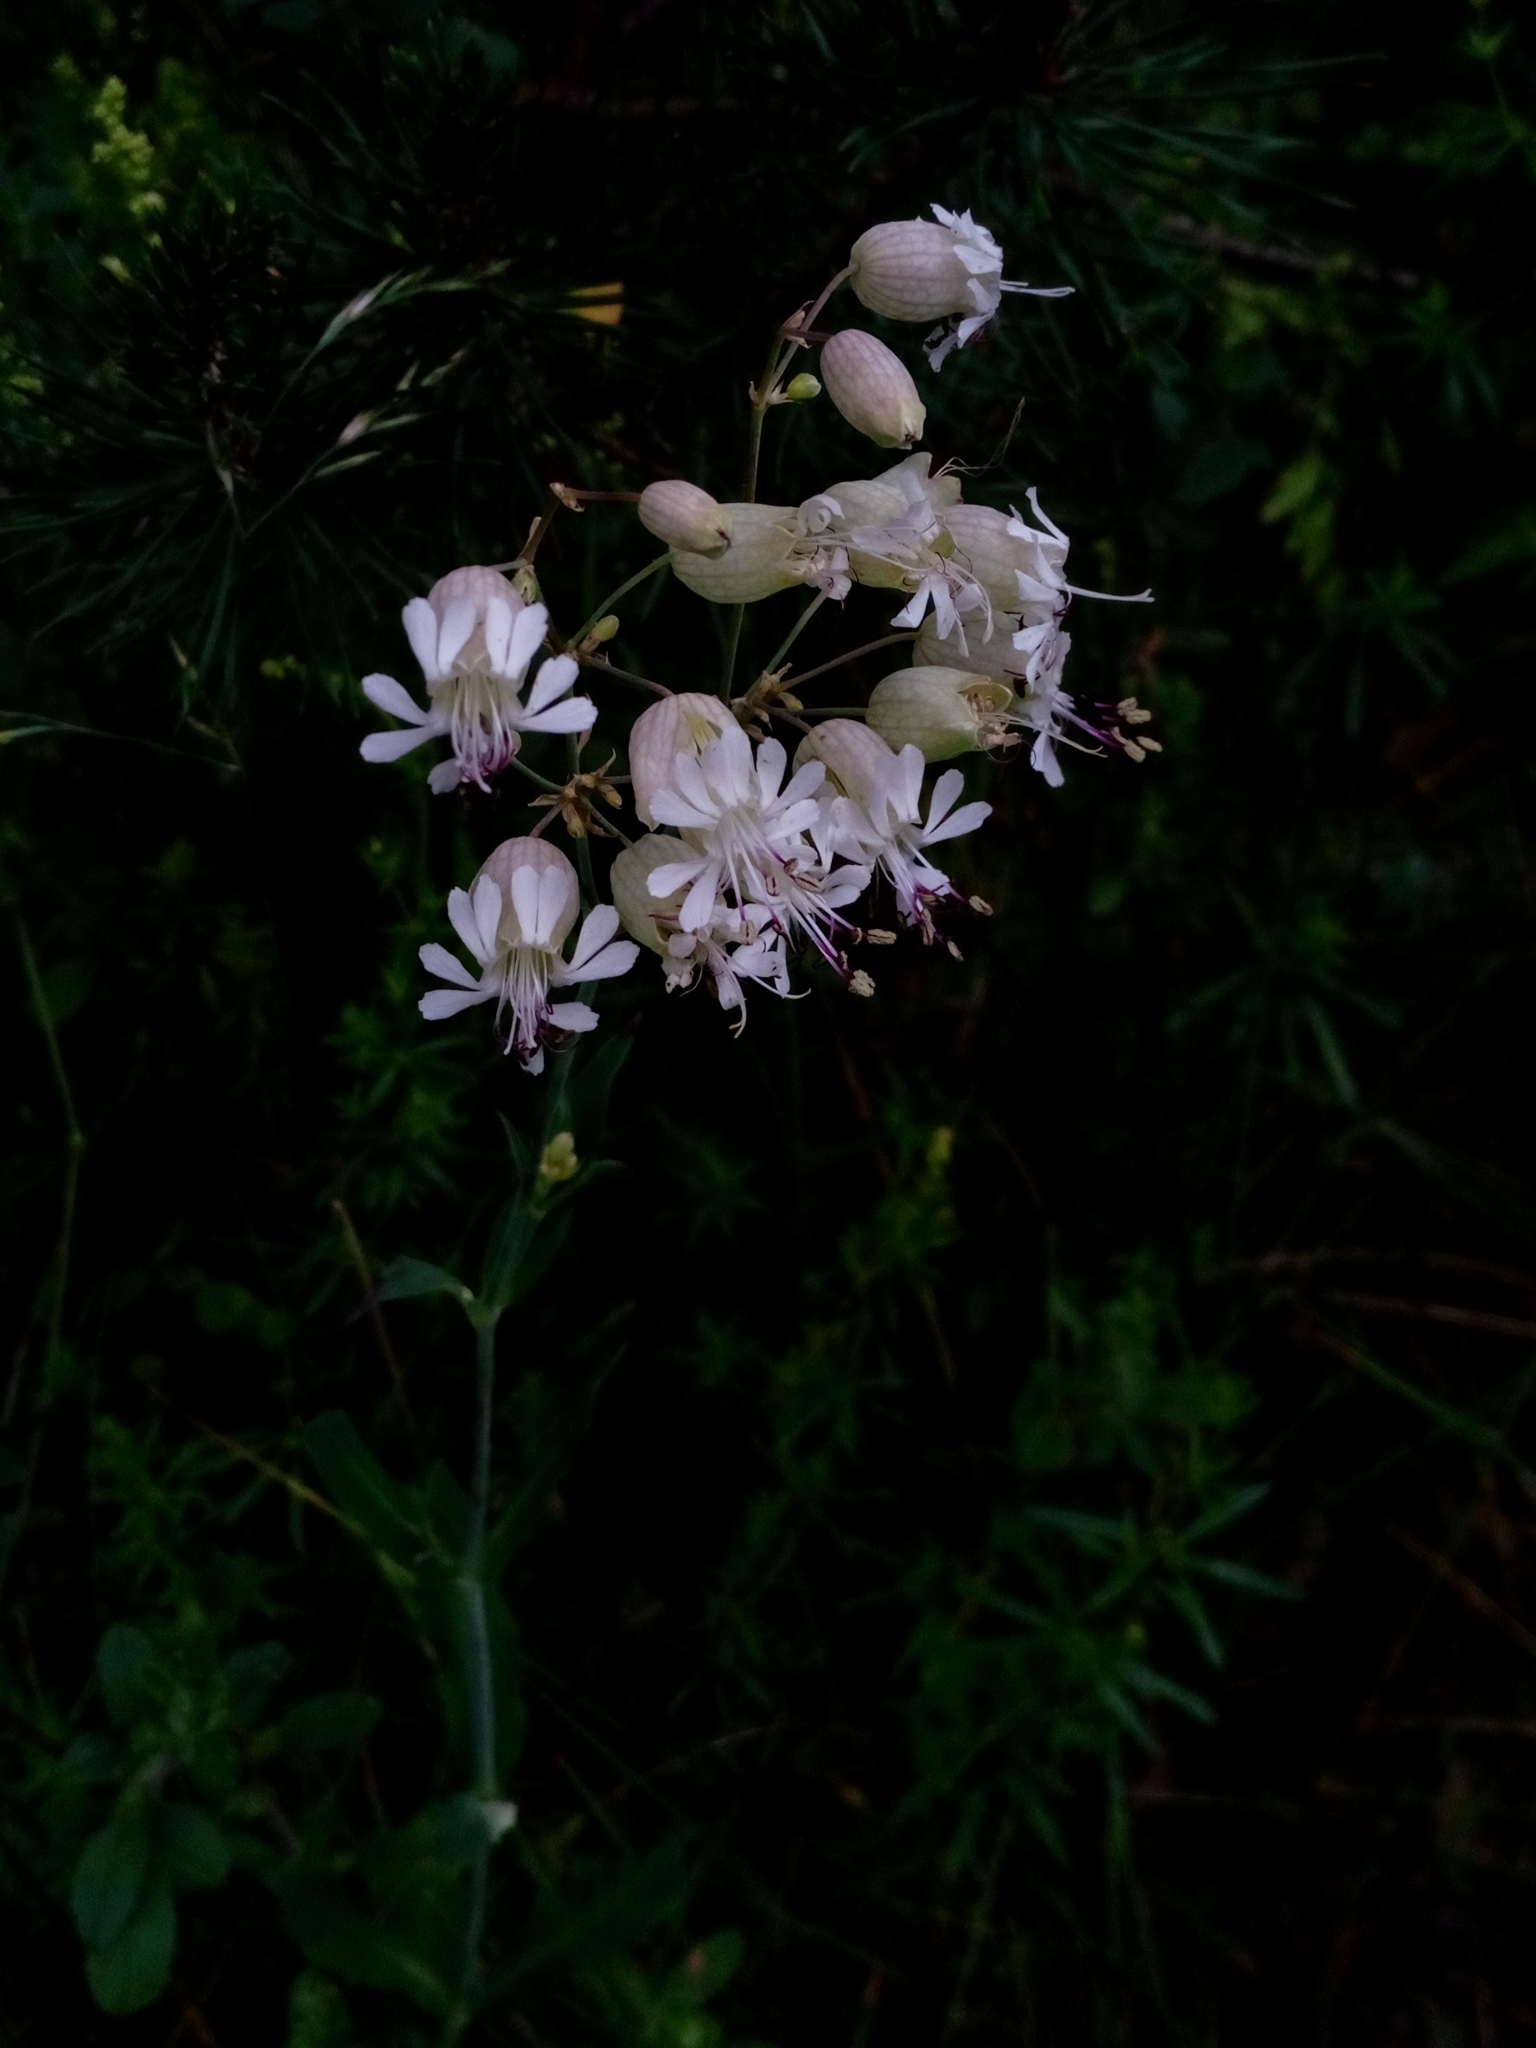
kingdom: Plantae
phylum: Tracheophyta
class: Magnoliopsida
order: Caryophyllales
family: Caryophyllaceae
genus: Silene
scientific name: Silene vulgaris
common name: Bladder campion
